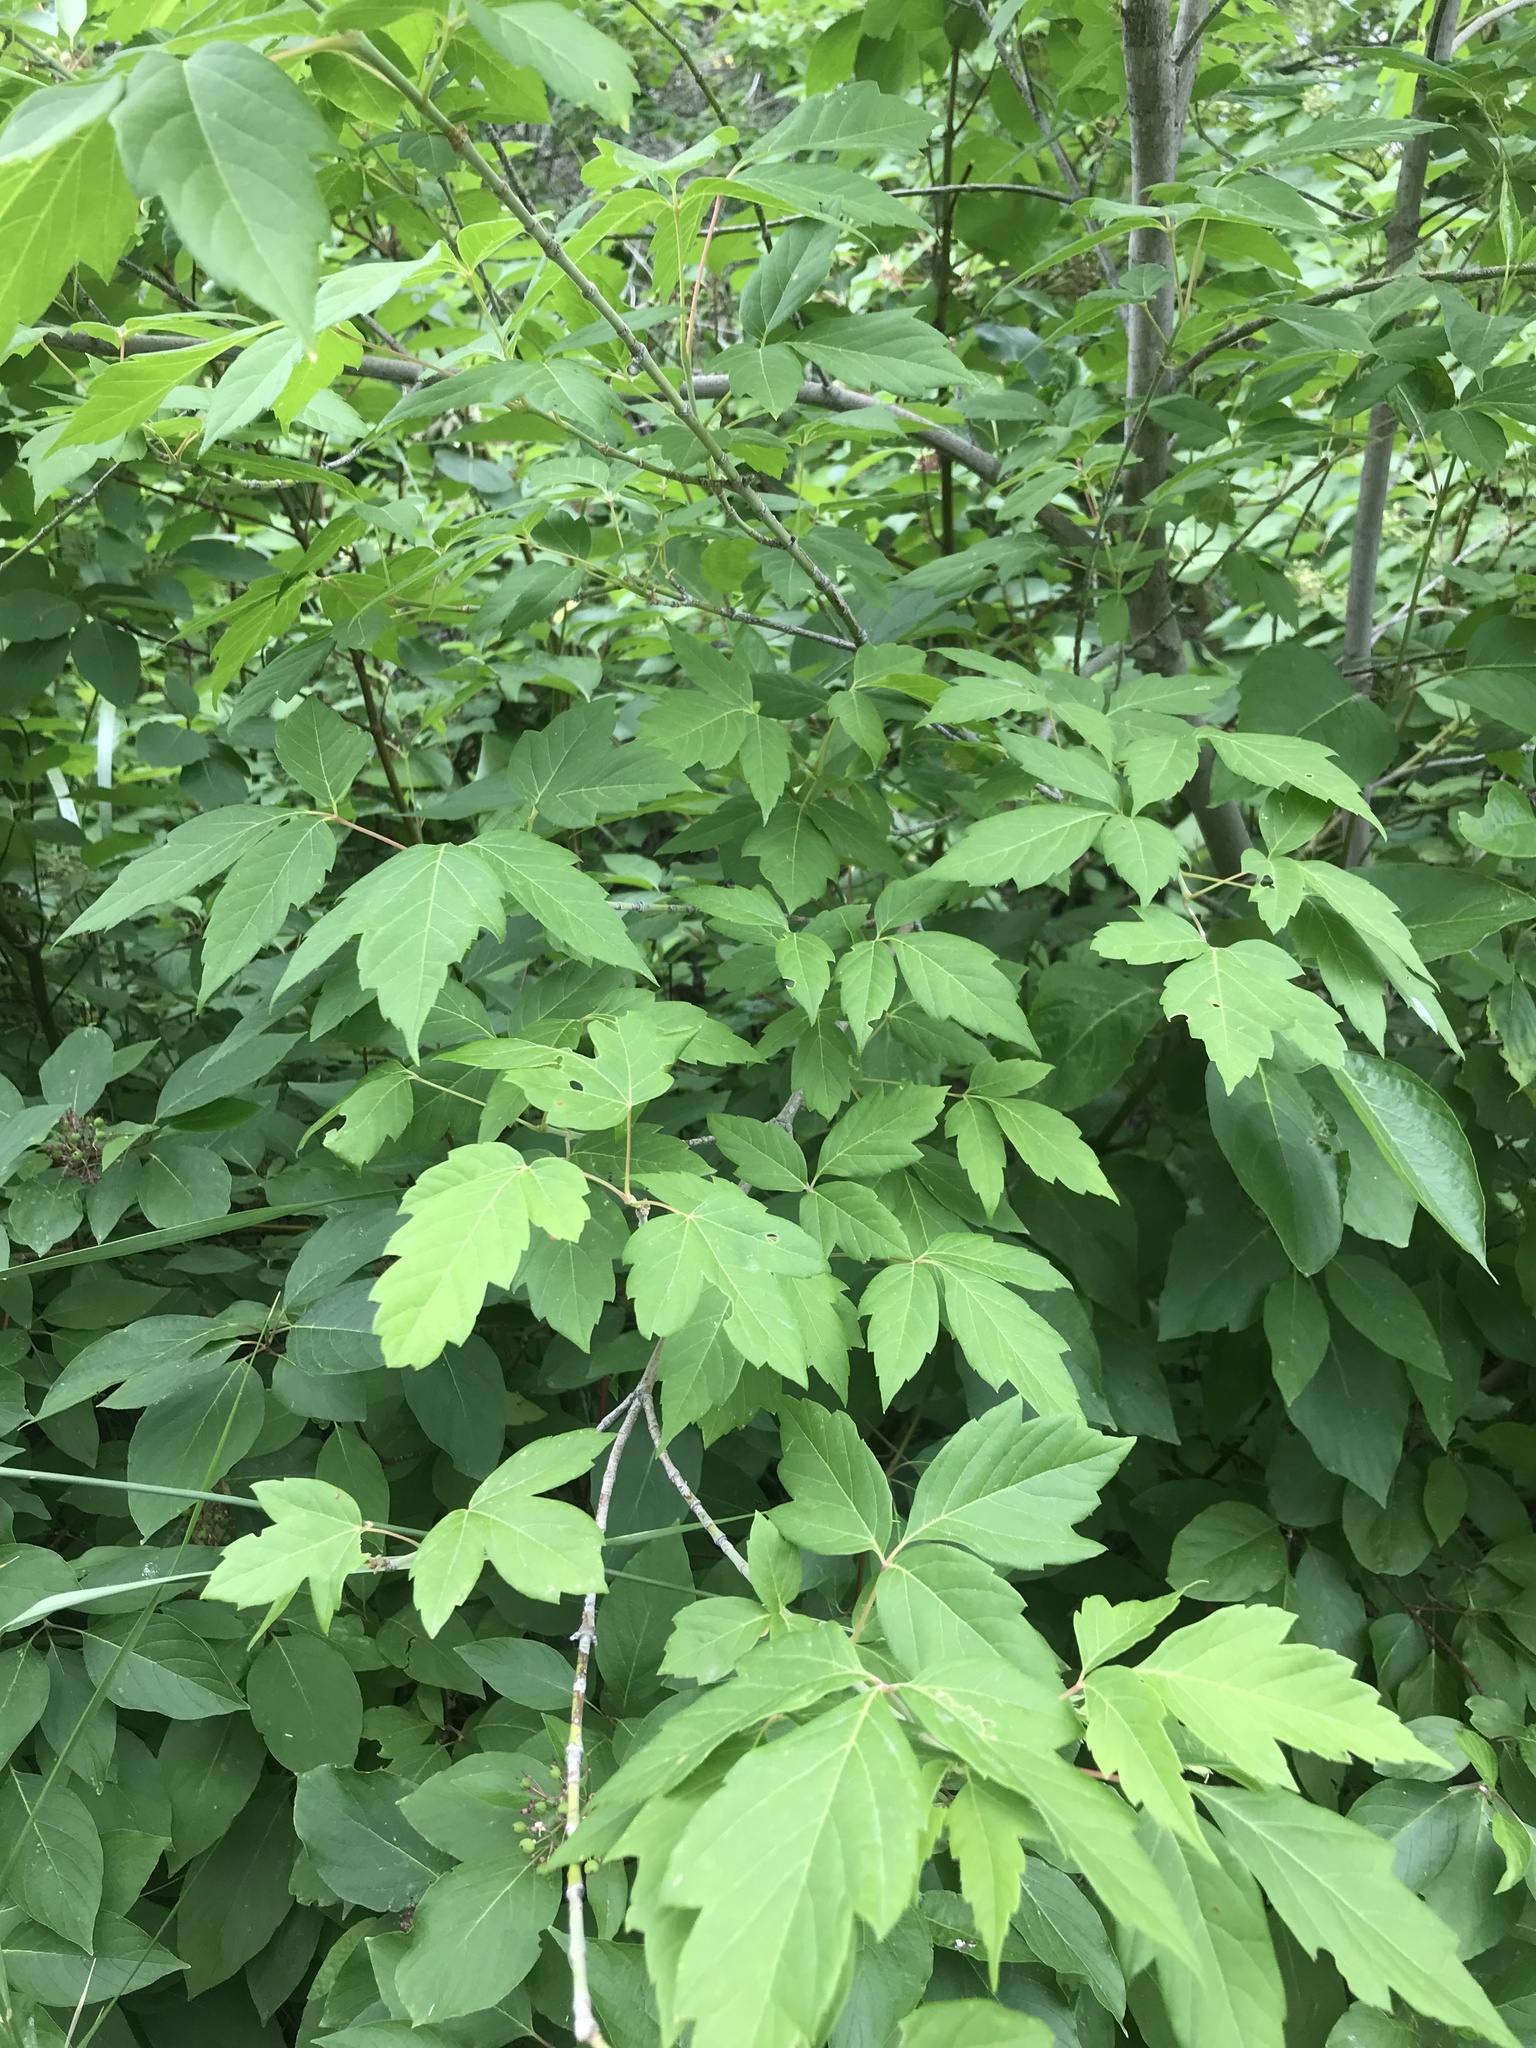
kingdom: Plantae
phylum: Tracheophyta
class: Magnoliopsida
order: Sapindales
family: Sapindaceae
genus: Acer
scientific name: Acer negundo
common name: Ashleaf maple
